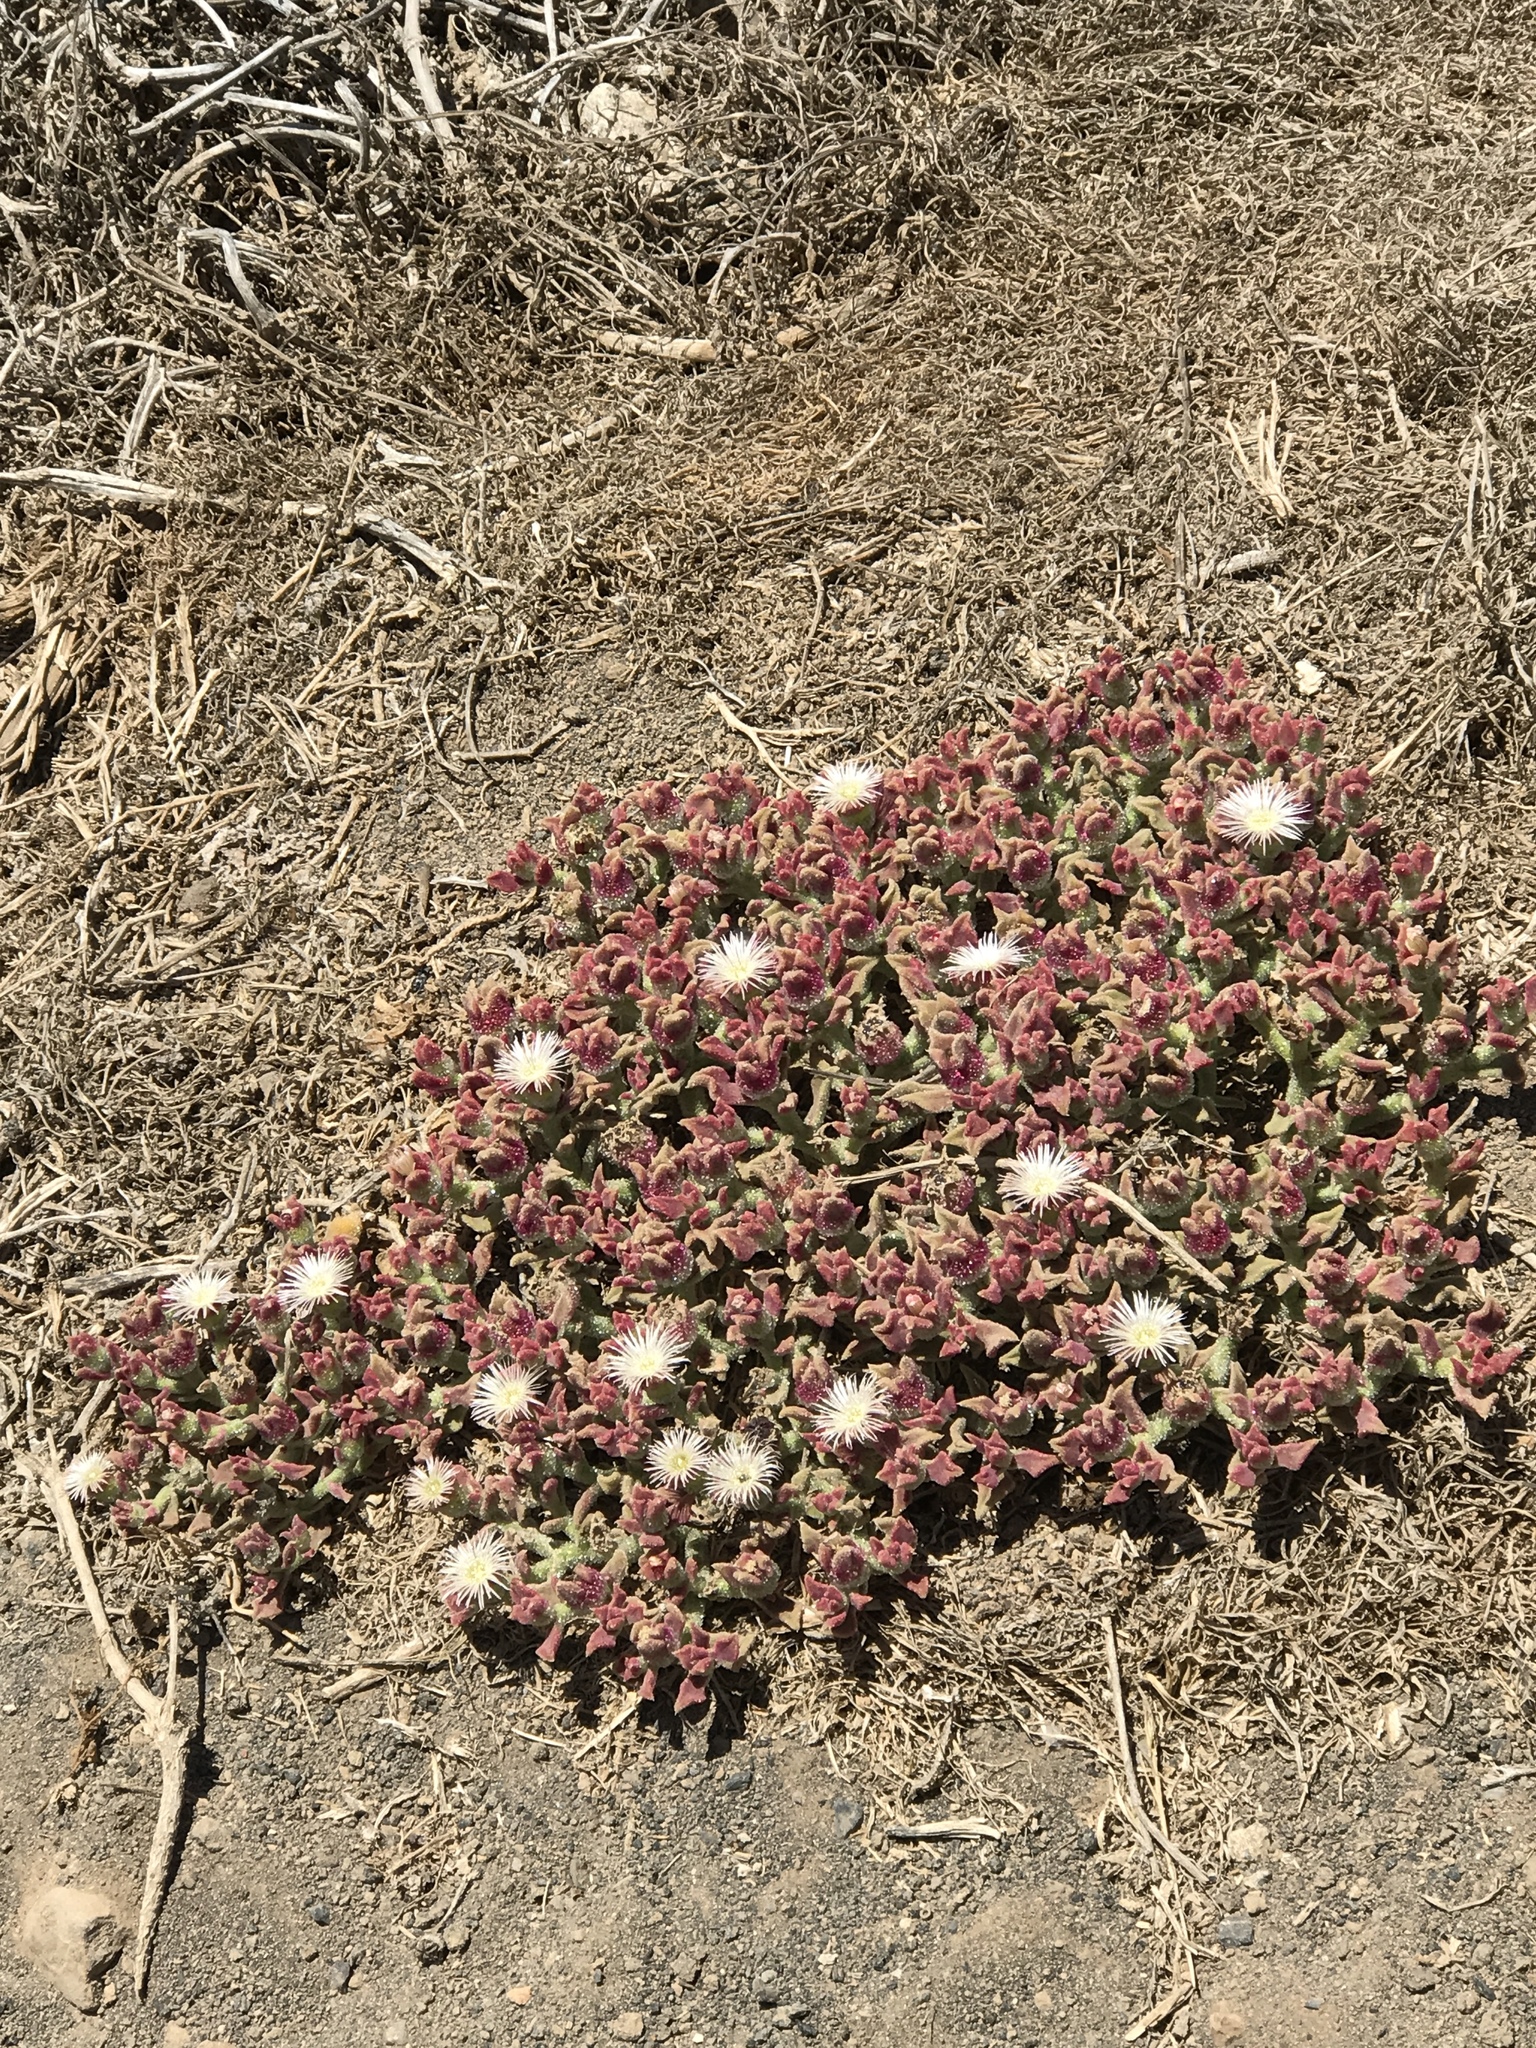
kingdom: Plantae
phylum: Tracheophyta
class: Magnoliopsida
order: Caryophyllales
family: Aizoaceae
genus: Mesembryanthemum
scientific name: Mesembryanthemum crystallinum
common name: Common iceplant
